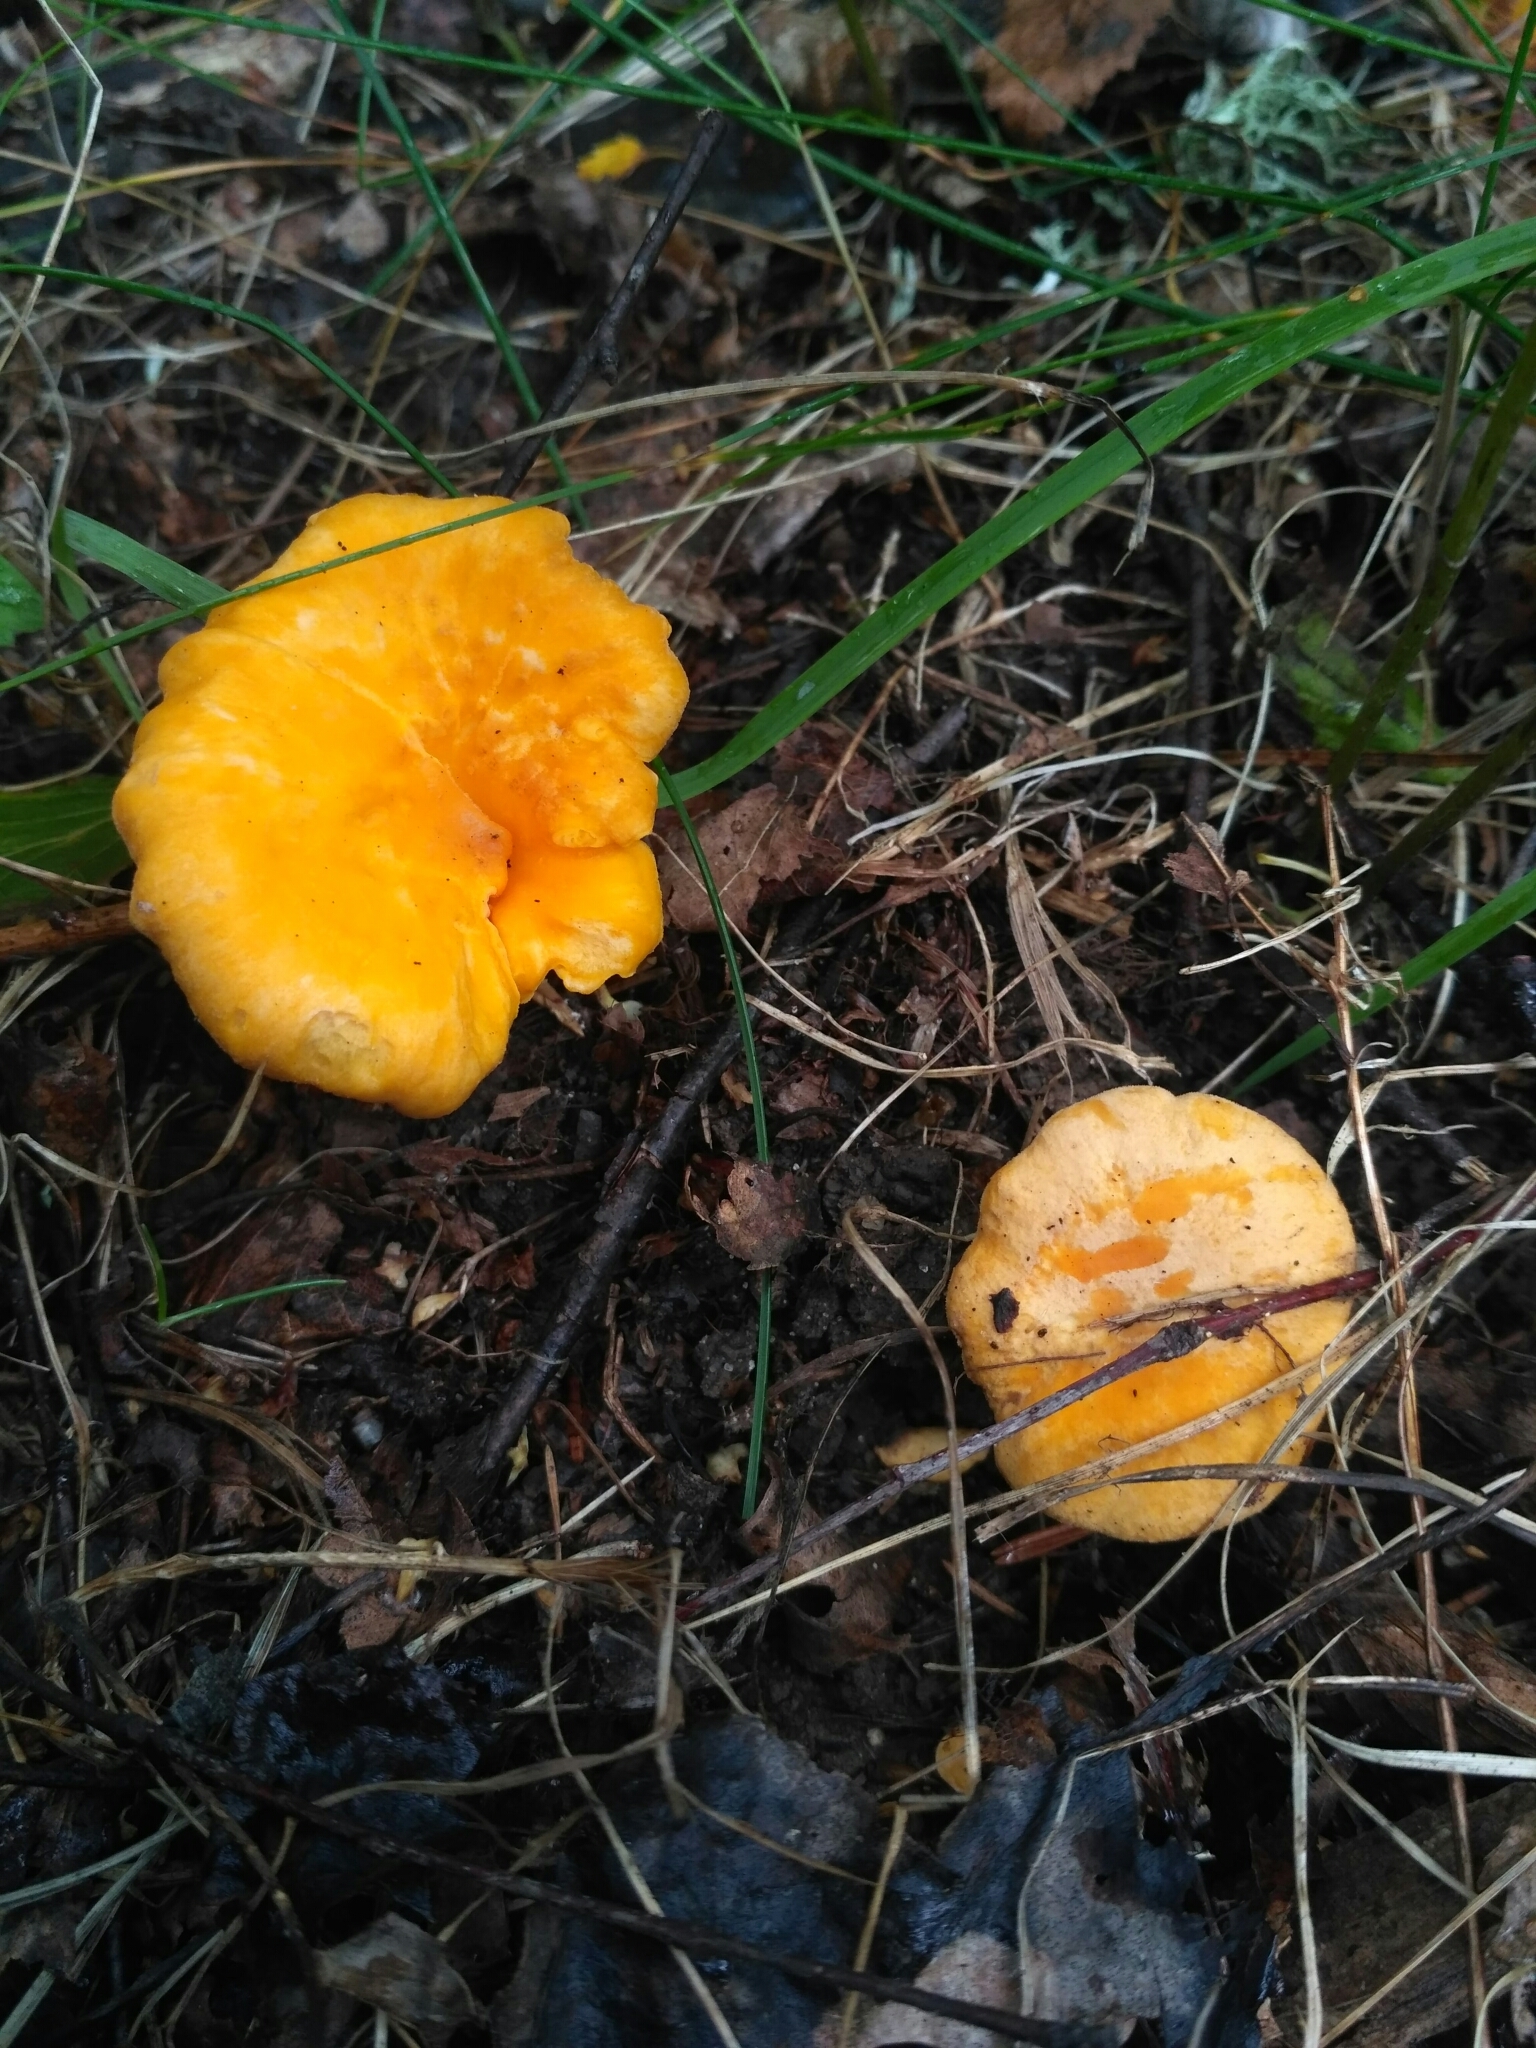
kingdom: Fungi
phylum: Basidiomycota
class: Agaricomycetes
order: Cantharellales
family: Hydnaceae
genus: Cantharellus
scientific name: Cantharellus cibarius
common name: Chanterelle
